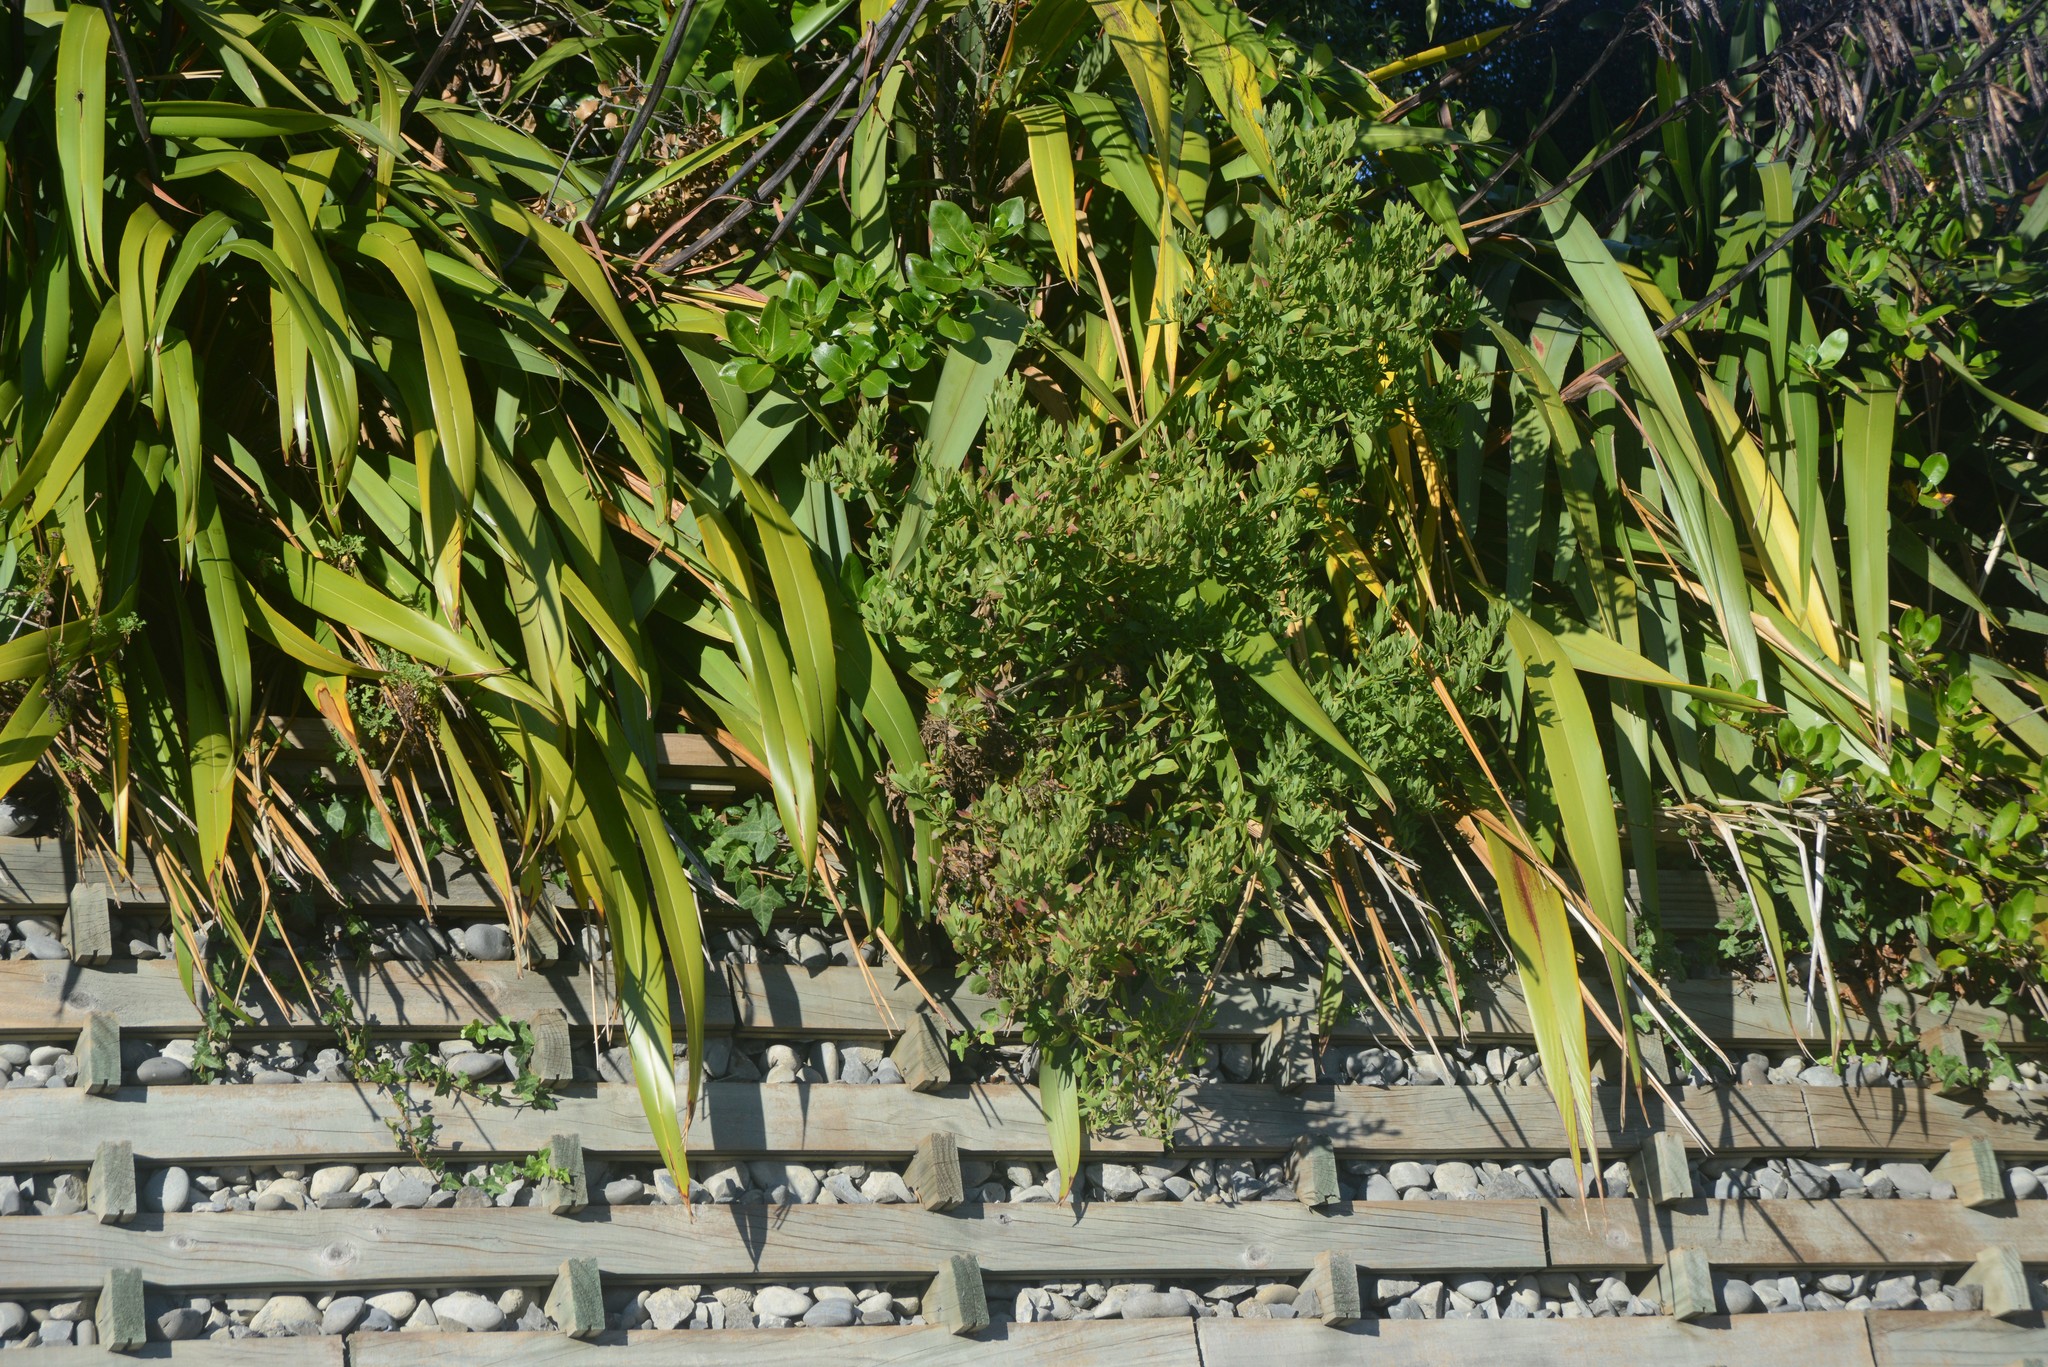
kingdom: Plantae
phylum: Tracheophyta
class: Magnoliopsida
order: Asterales
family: Asteraceae
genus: Osteospermum
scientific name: Osteospermum moniliferum
